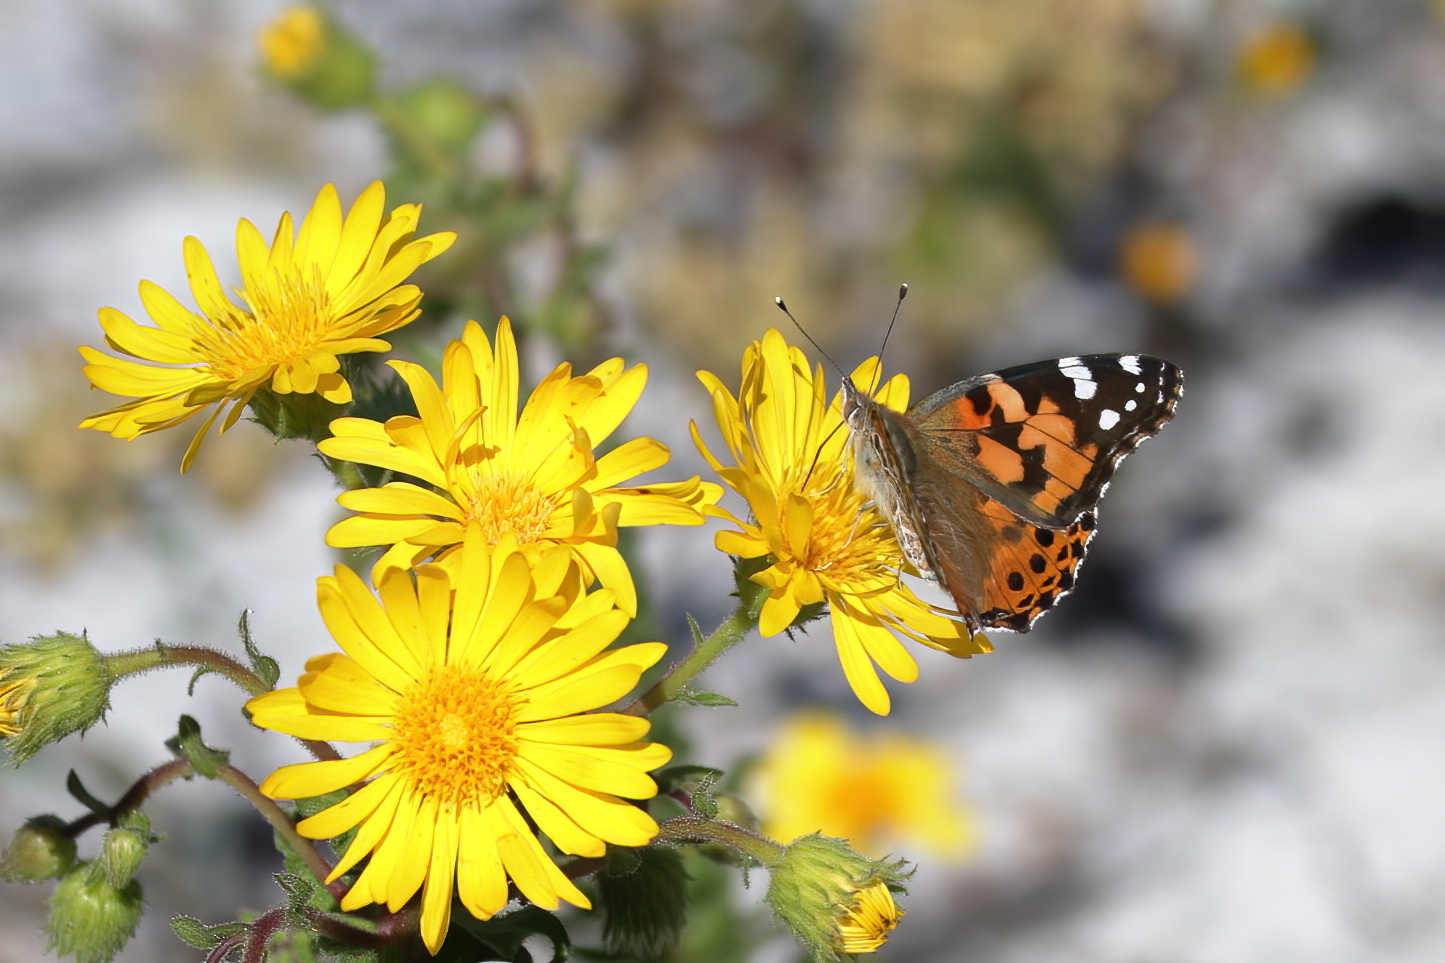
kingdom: Animalia
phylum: Arthropoda
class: Insecta
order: Lepidoptera
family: Nymphalidae
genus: Vanessa
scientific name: Vanessa cardui
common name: Painted lady
